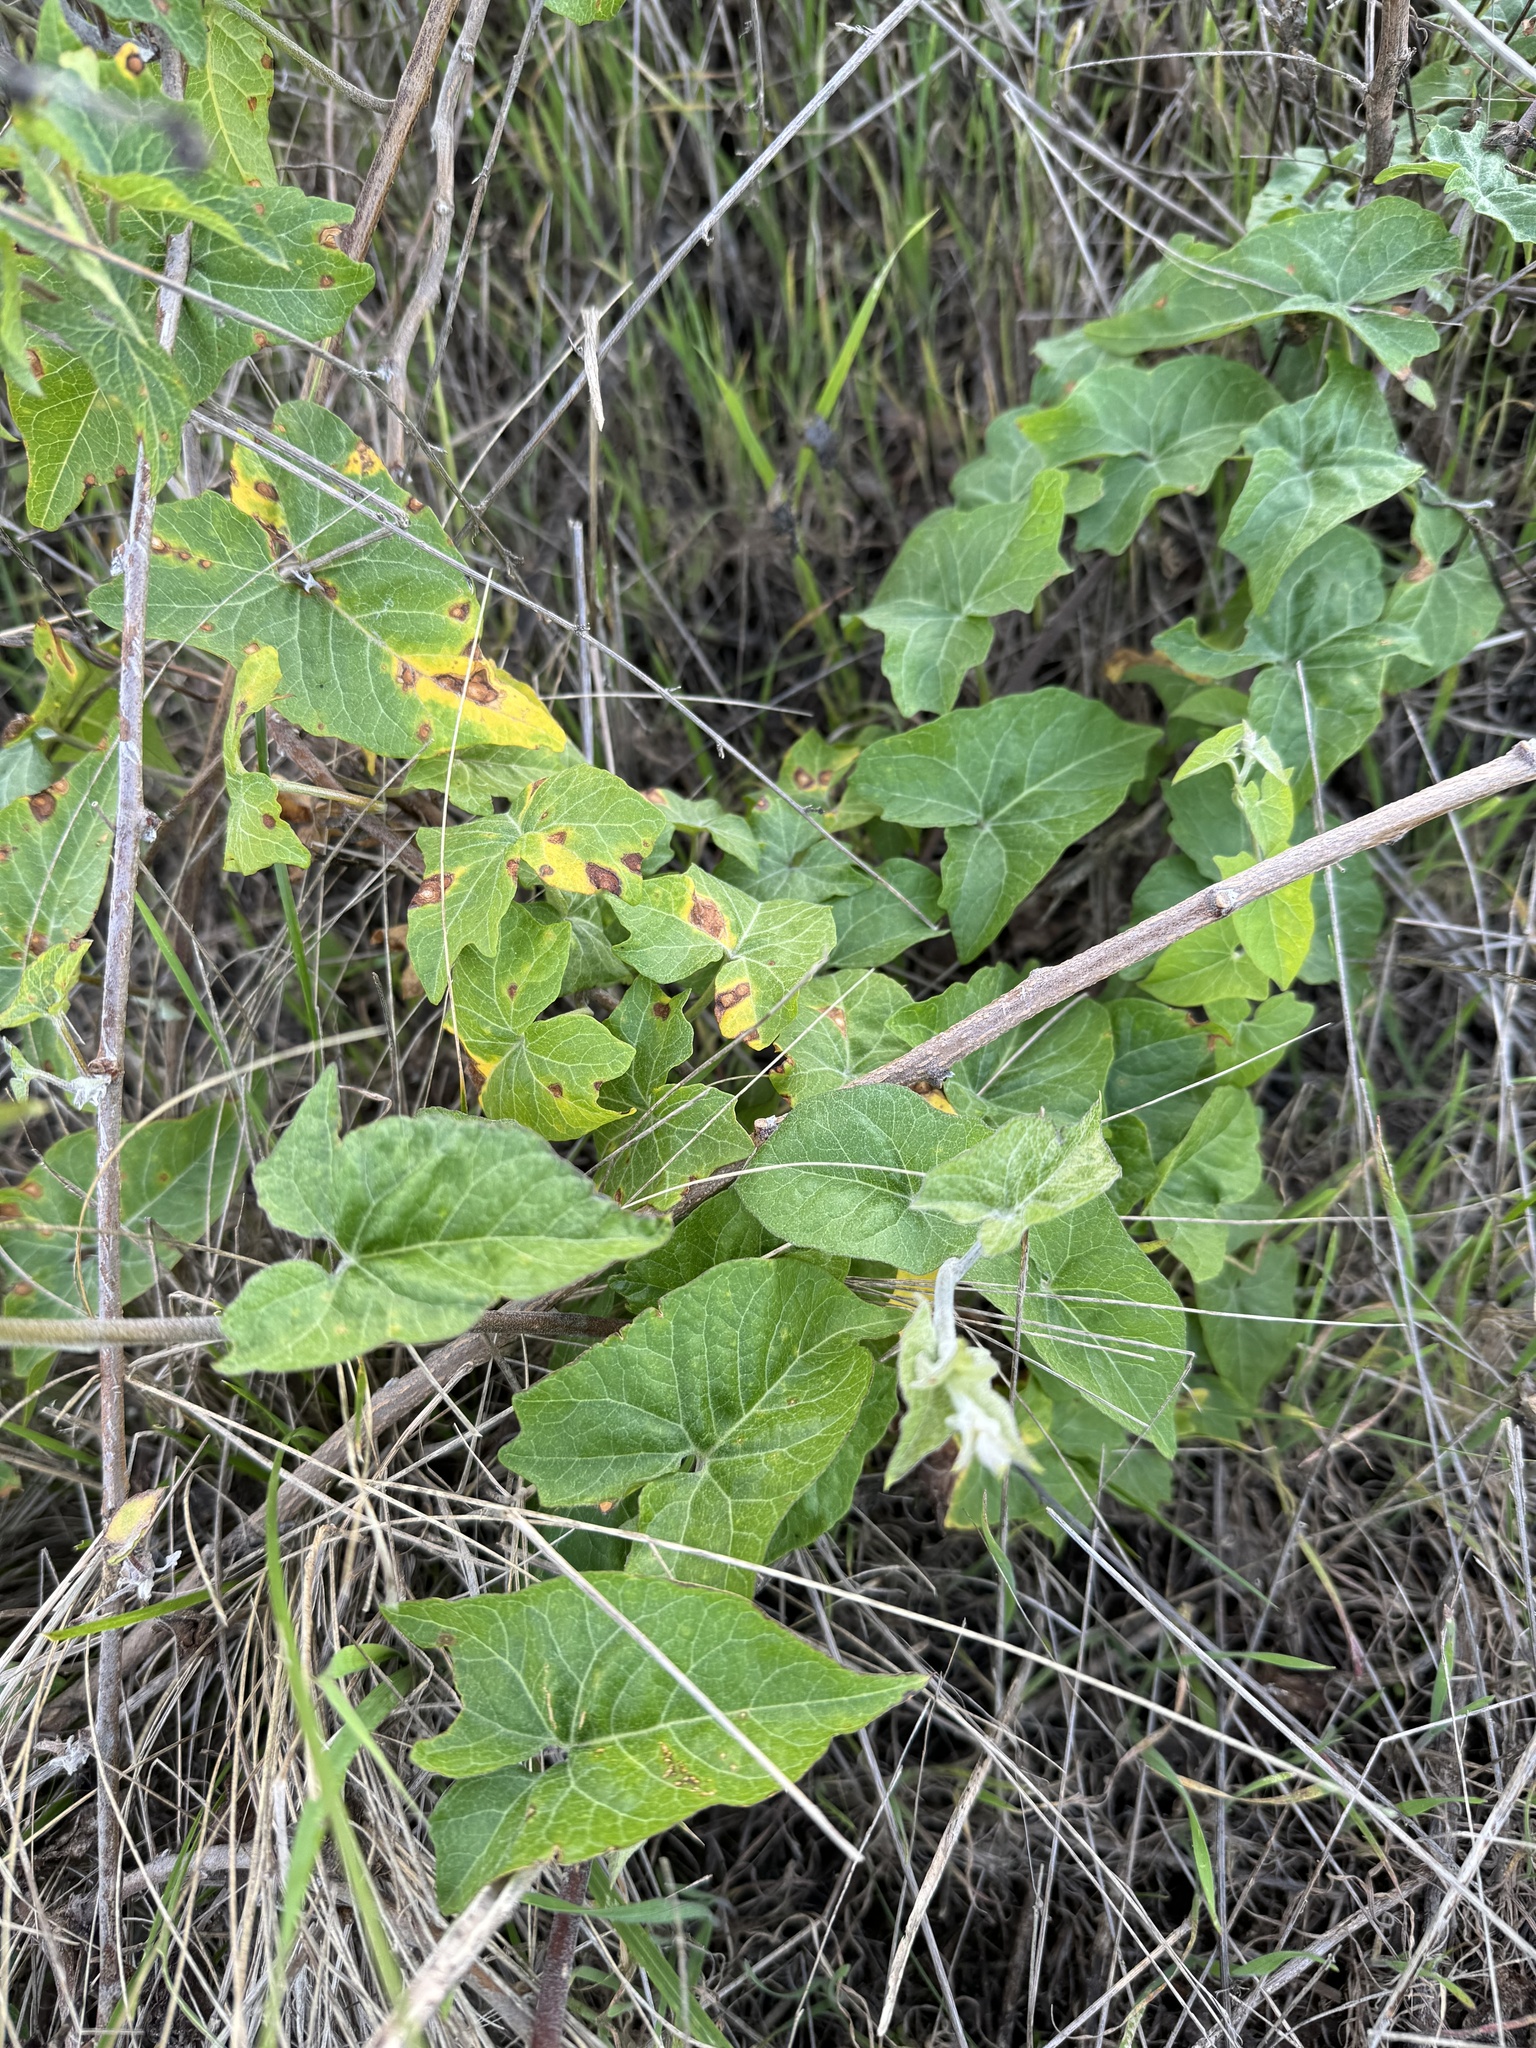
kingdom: Plantae
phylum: Tracheophyta
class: Magnoliopsida
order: Solanales
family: Convolvulaceae
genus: Calystegia
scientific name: Calystegia macrostegia
